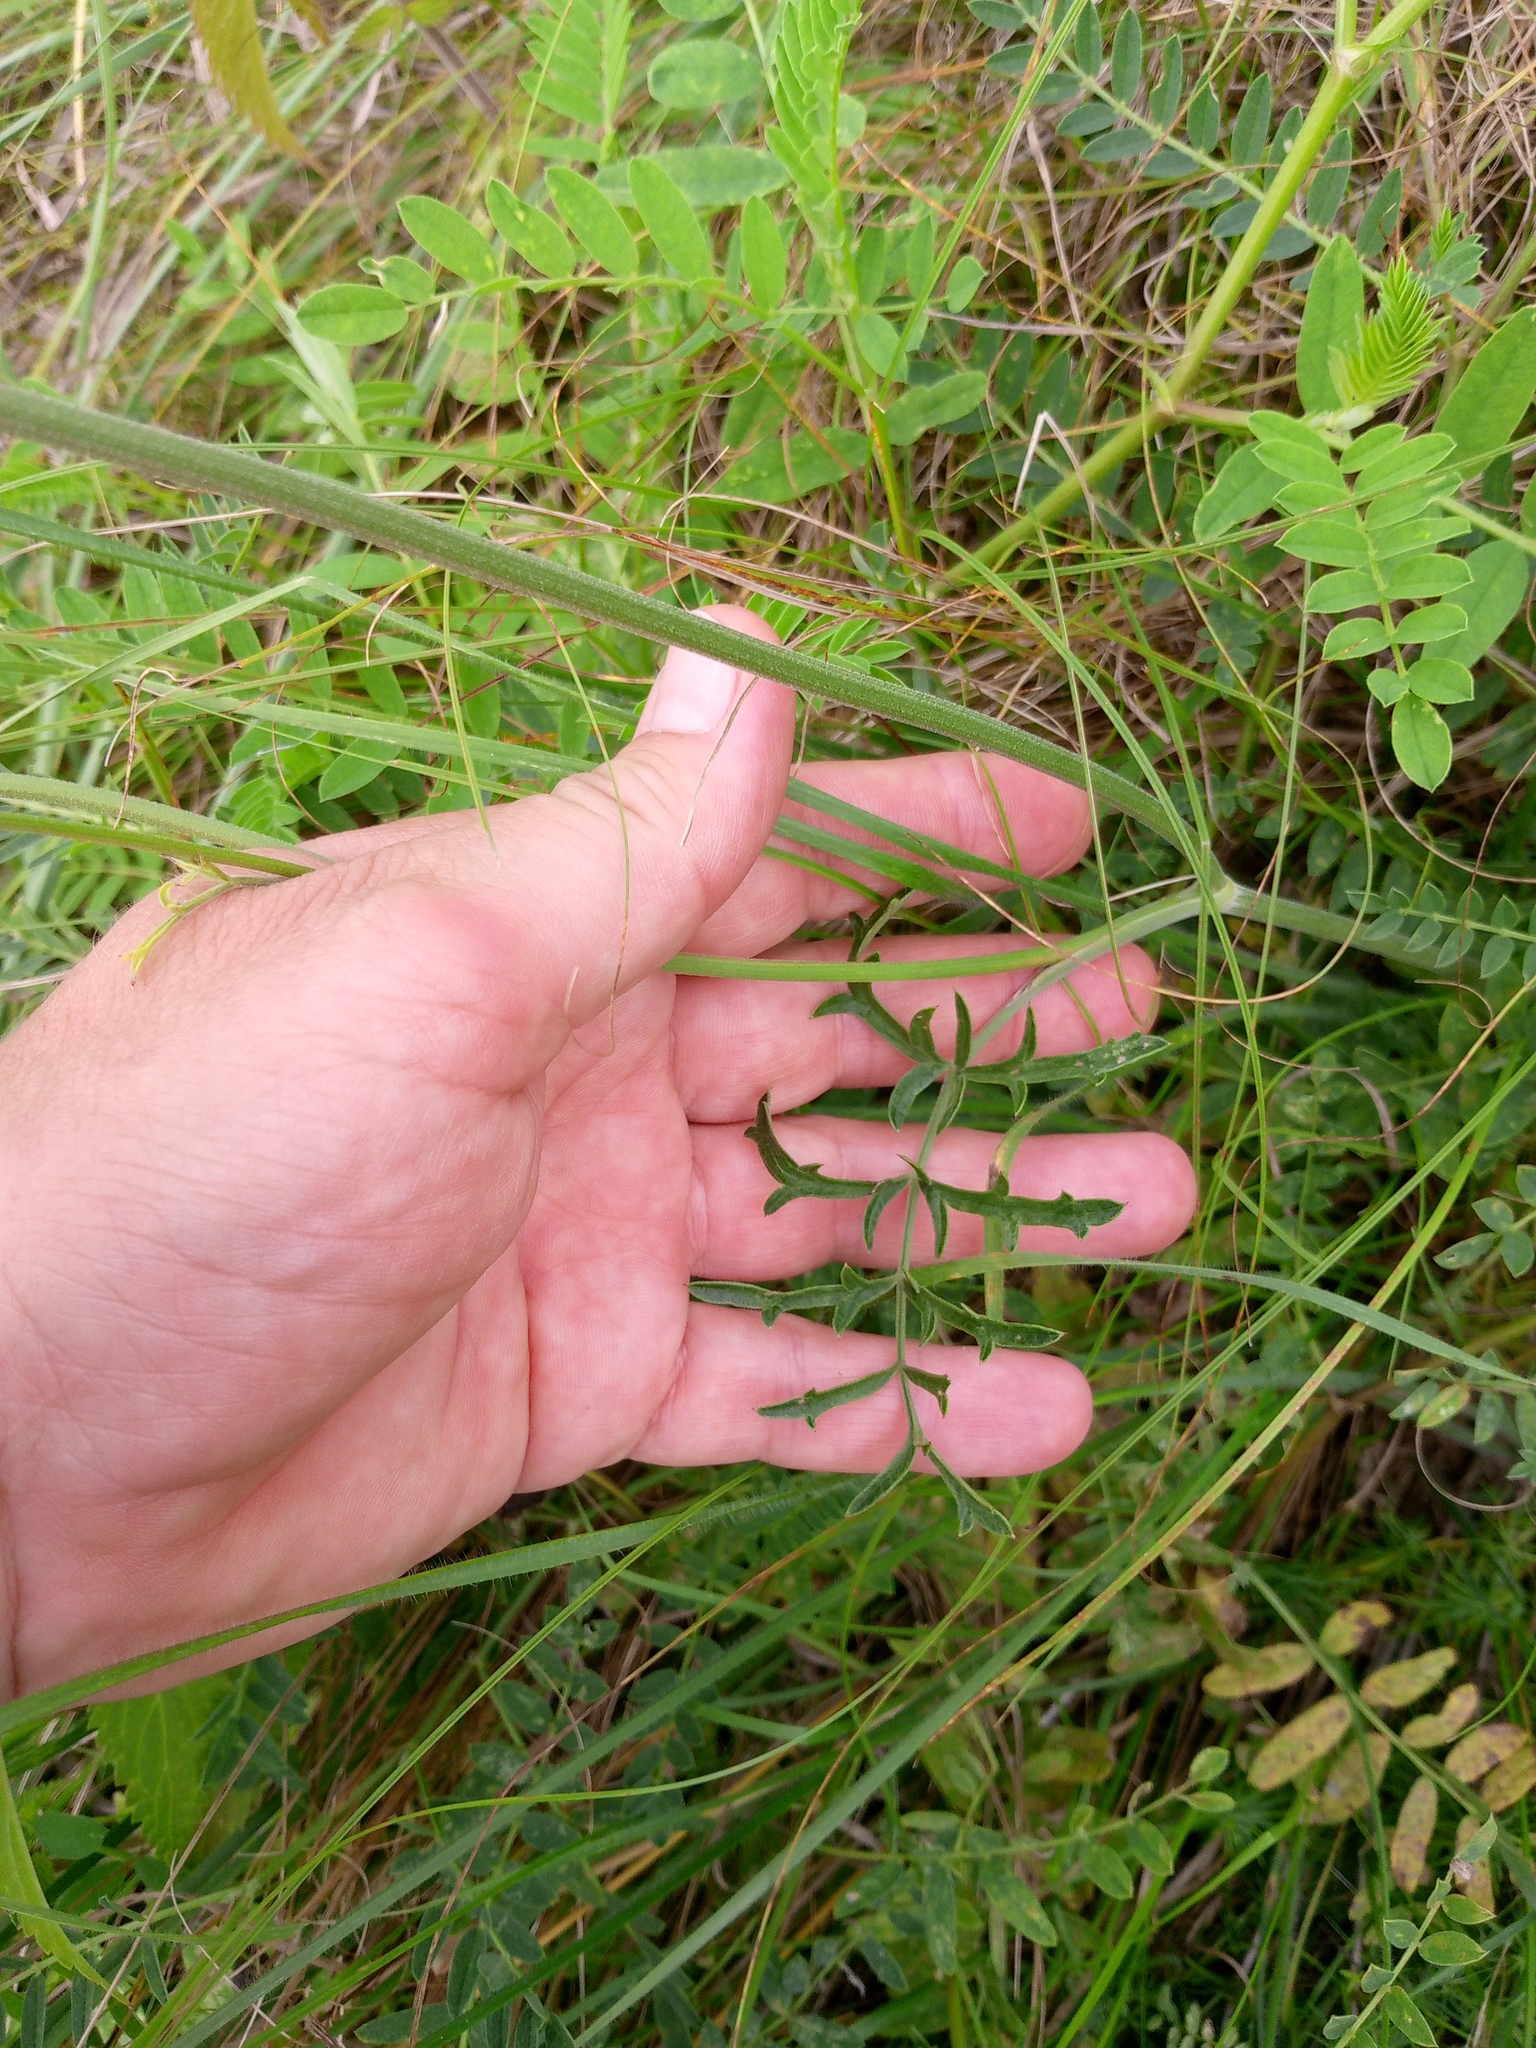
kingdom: Plantae
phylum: Tracheophyta
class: Magnoliopsida
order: Apiales
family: Apiaceae
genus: Pimpinella
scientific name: Pimpinella saxifraga
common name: Burnet-saxifrage
